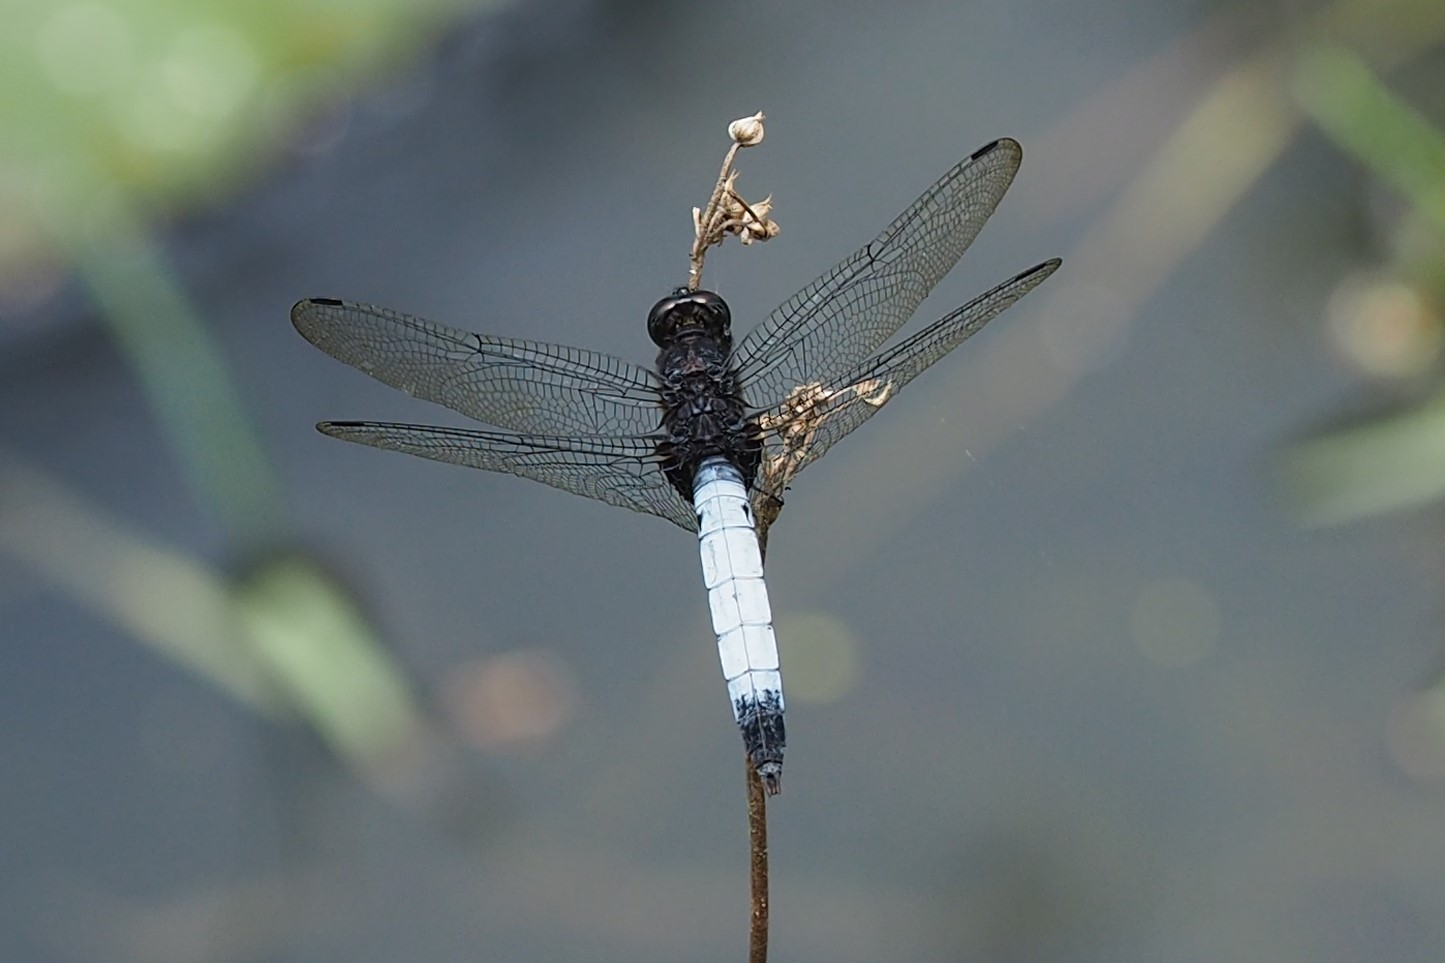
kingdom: Animalia
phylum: Arthropoda
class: Insecta
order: Odonata
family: Libellulidae
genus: Orthetrum
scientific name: Orthetrum triangulare
